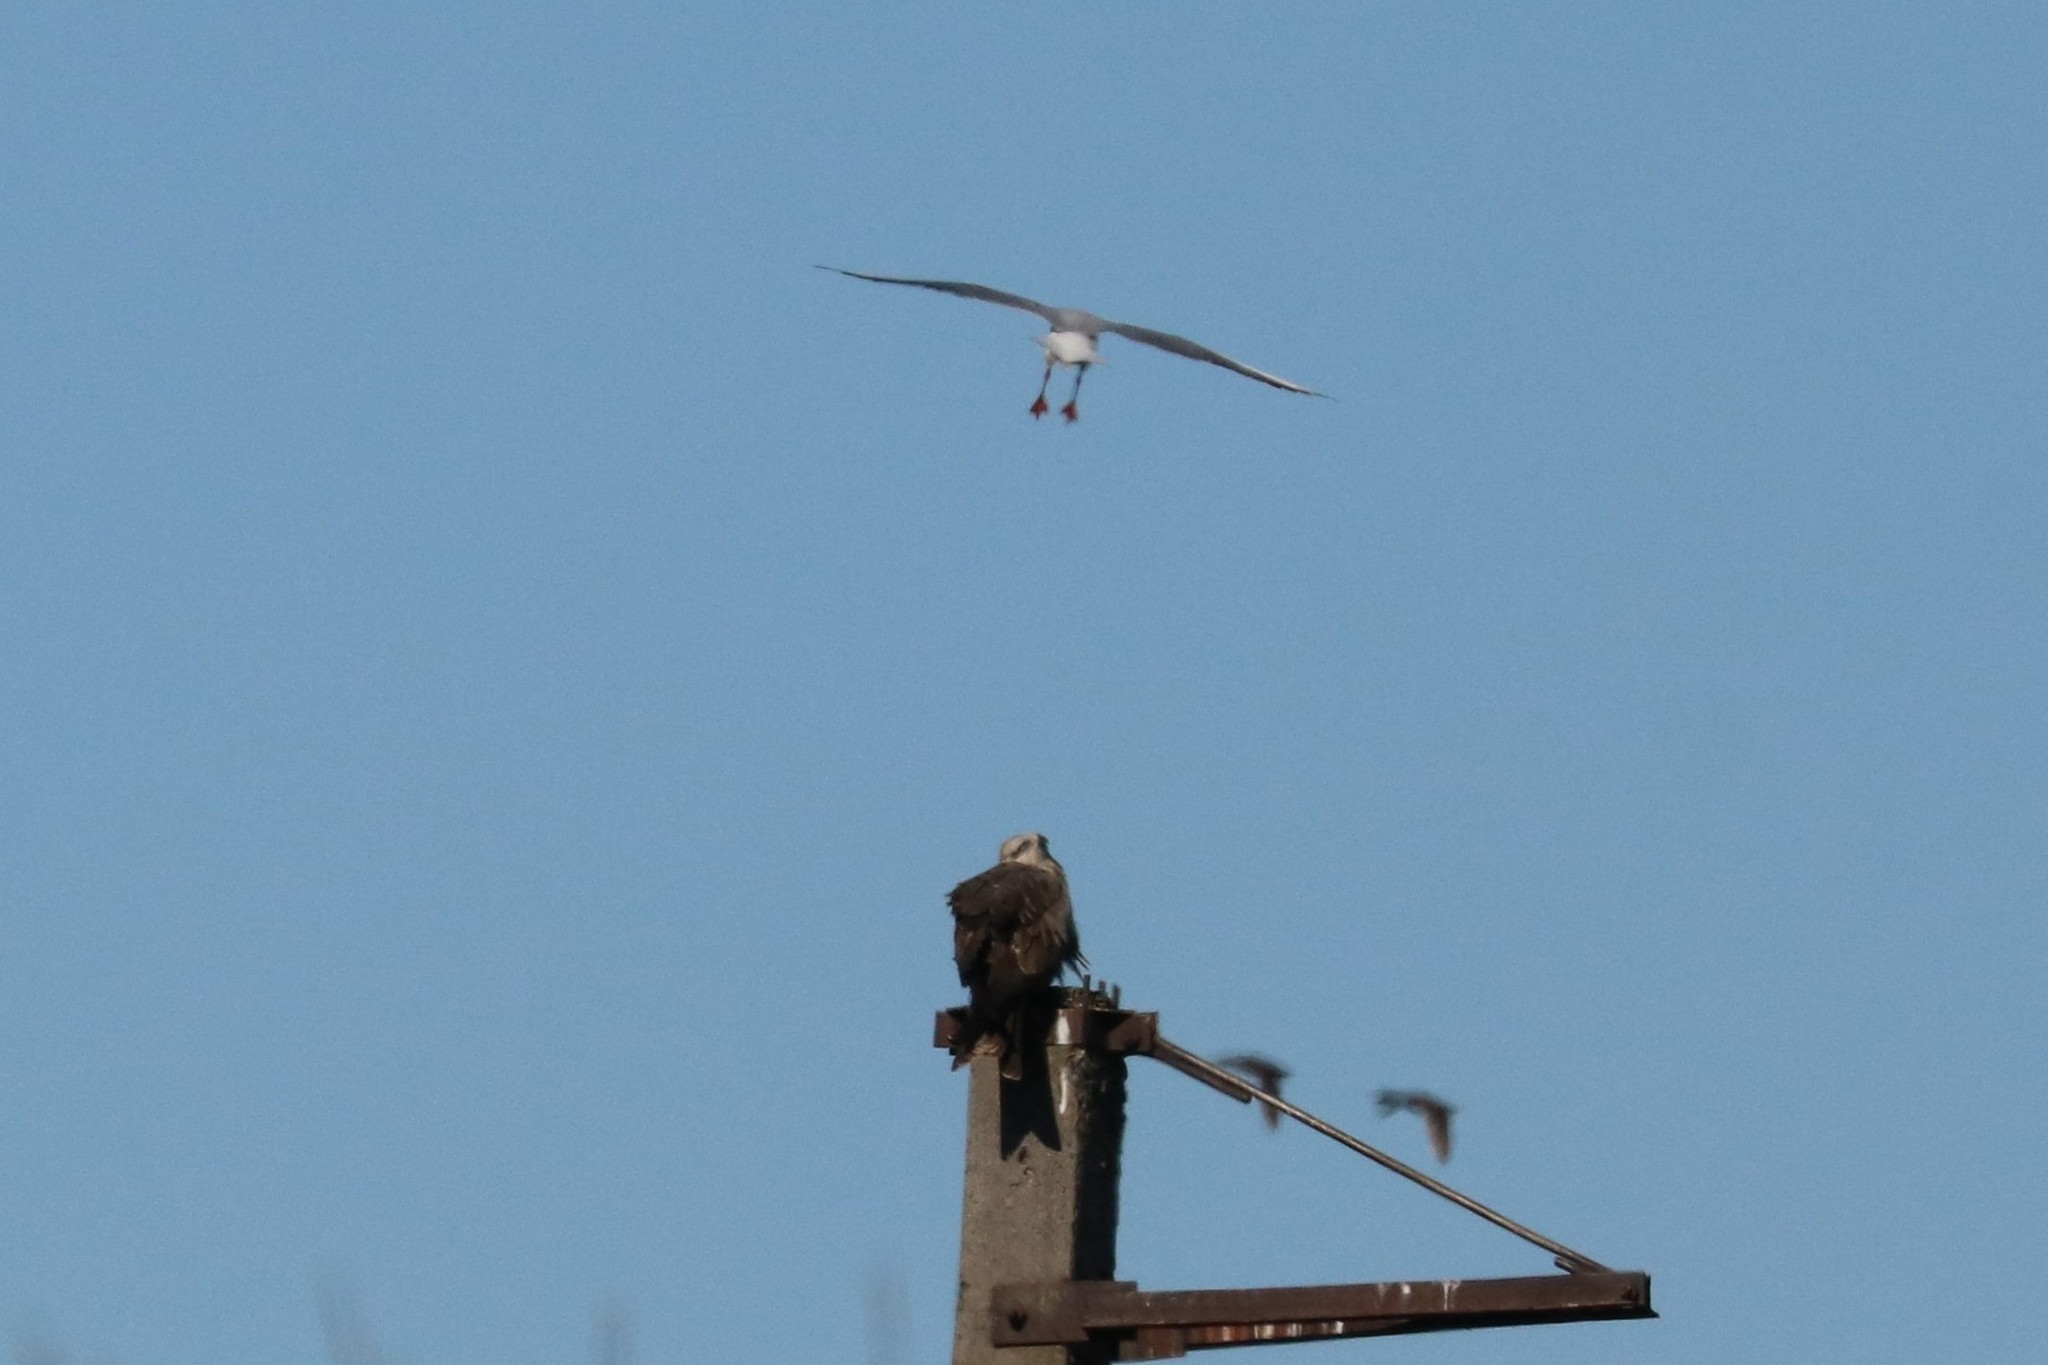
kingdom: Animalia
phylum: Chordata
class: Aves
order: Accipitriformes
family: Accipitridae
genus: Milvus
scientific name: Milvus migrans
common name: Black kite
